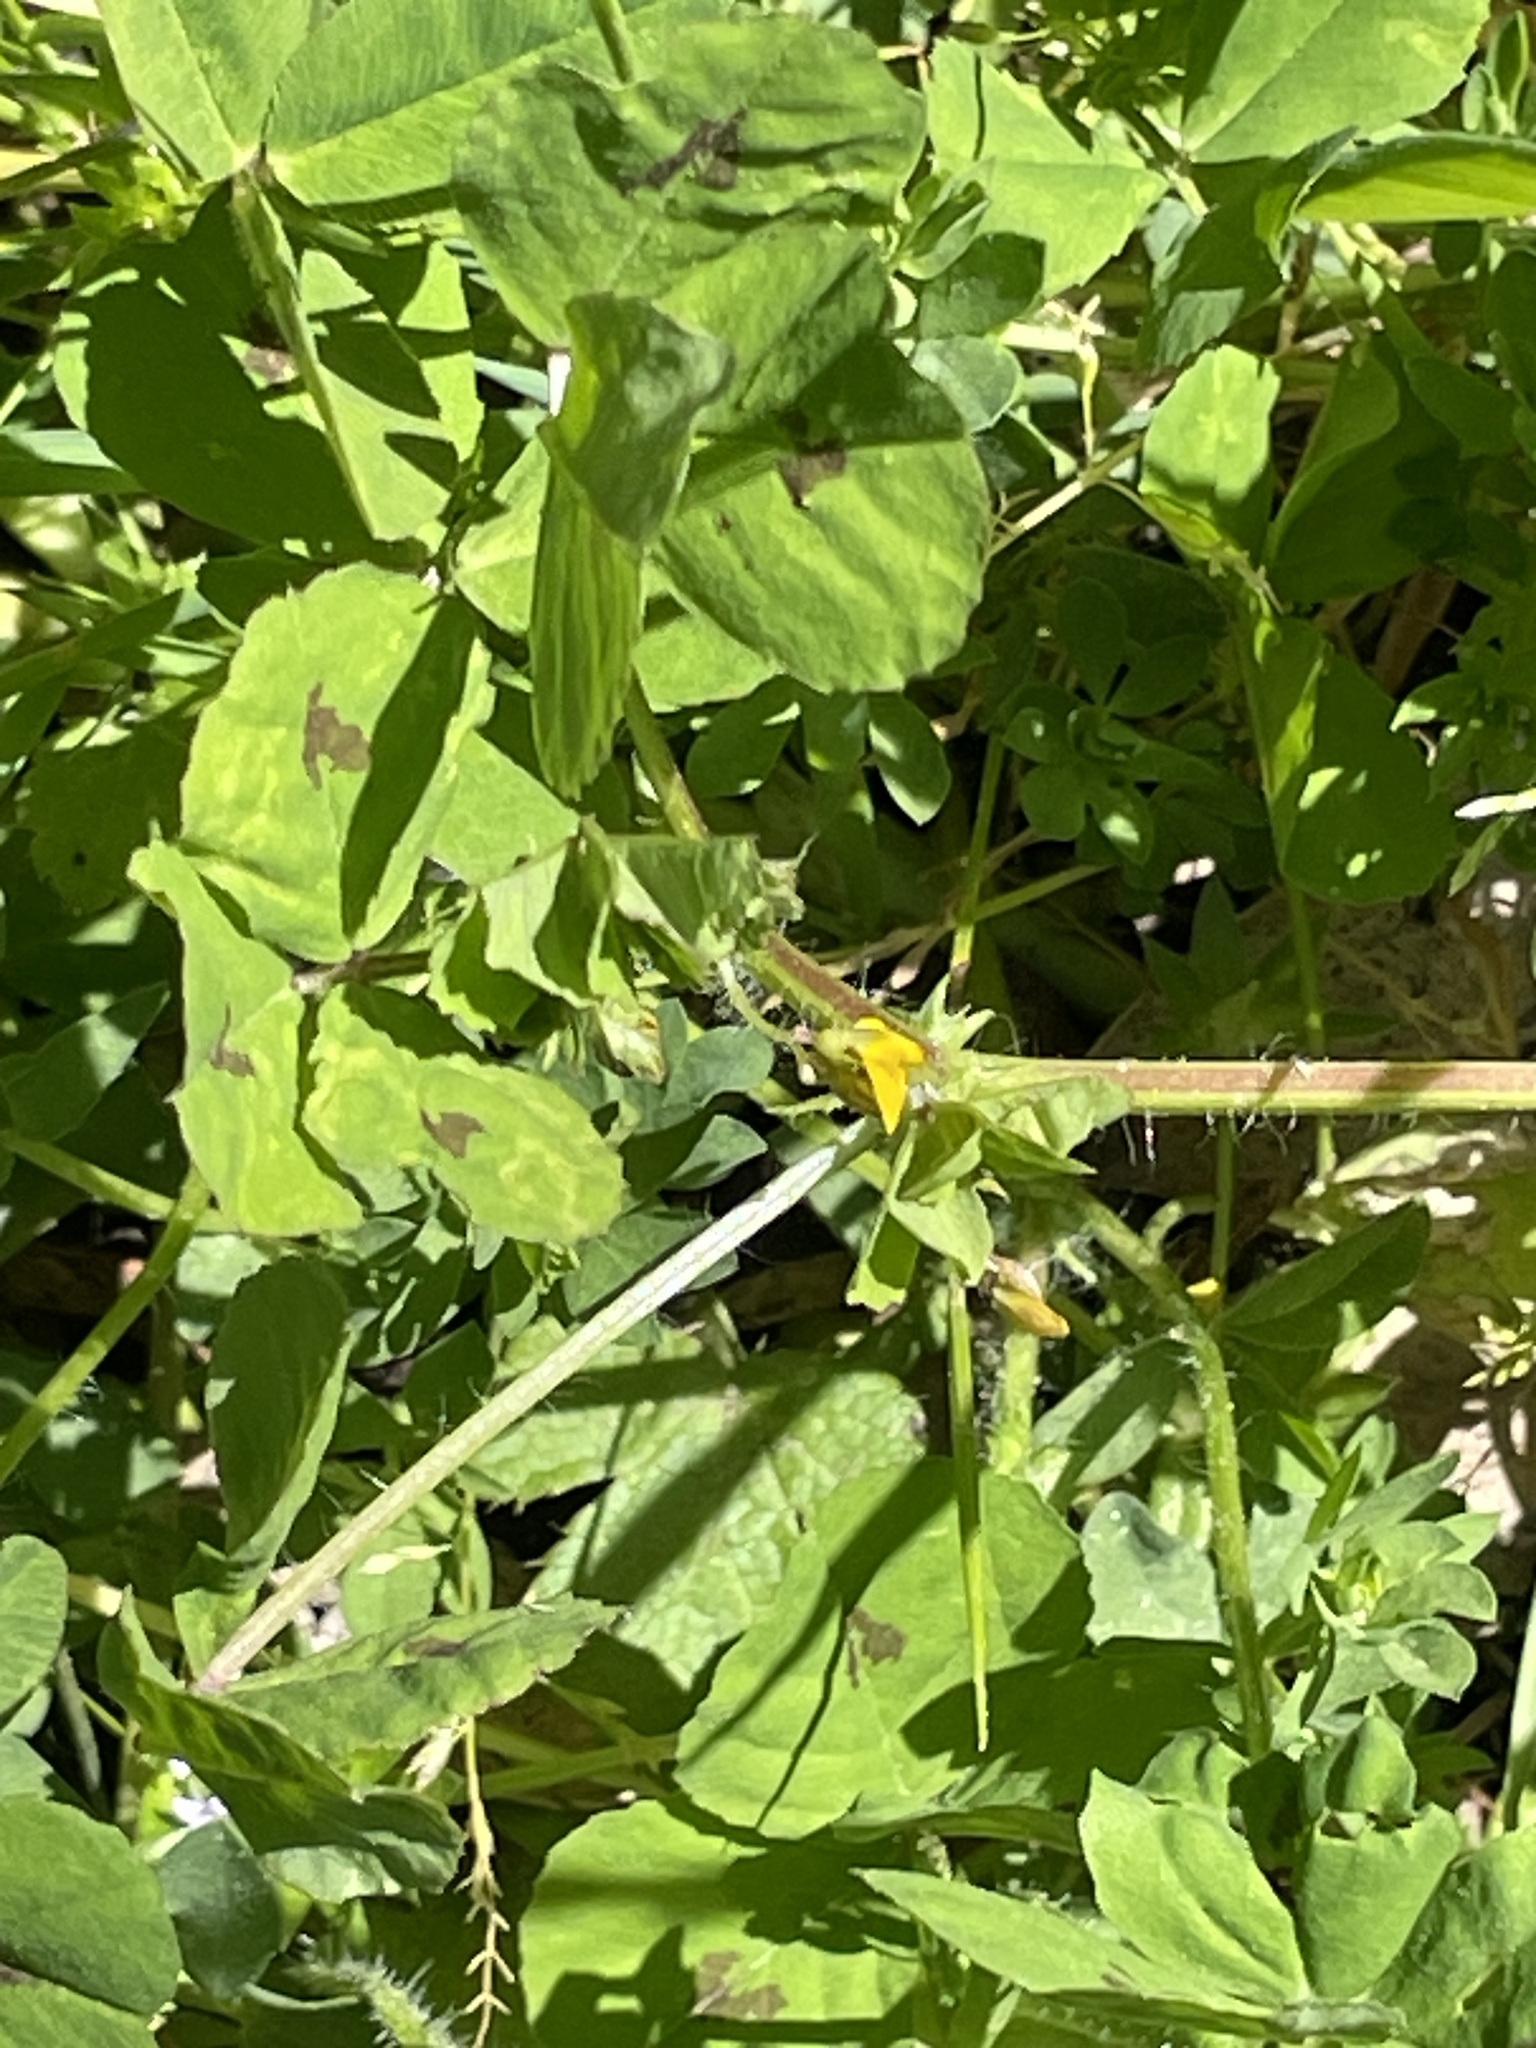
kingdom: Plantae
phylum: Tracheophyta
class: Magnoliopsida
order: Fabales
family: Fabaceae
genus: Medicago
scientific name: Medicago arabica
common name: Spotted medick
